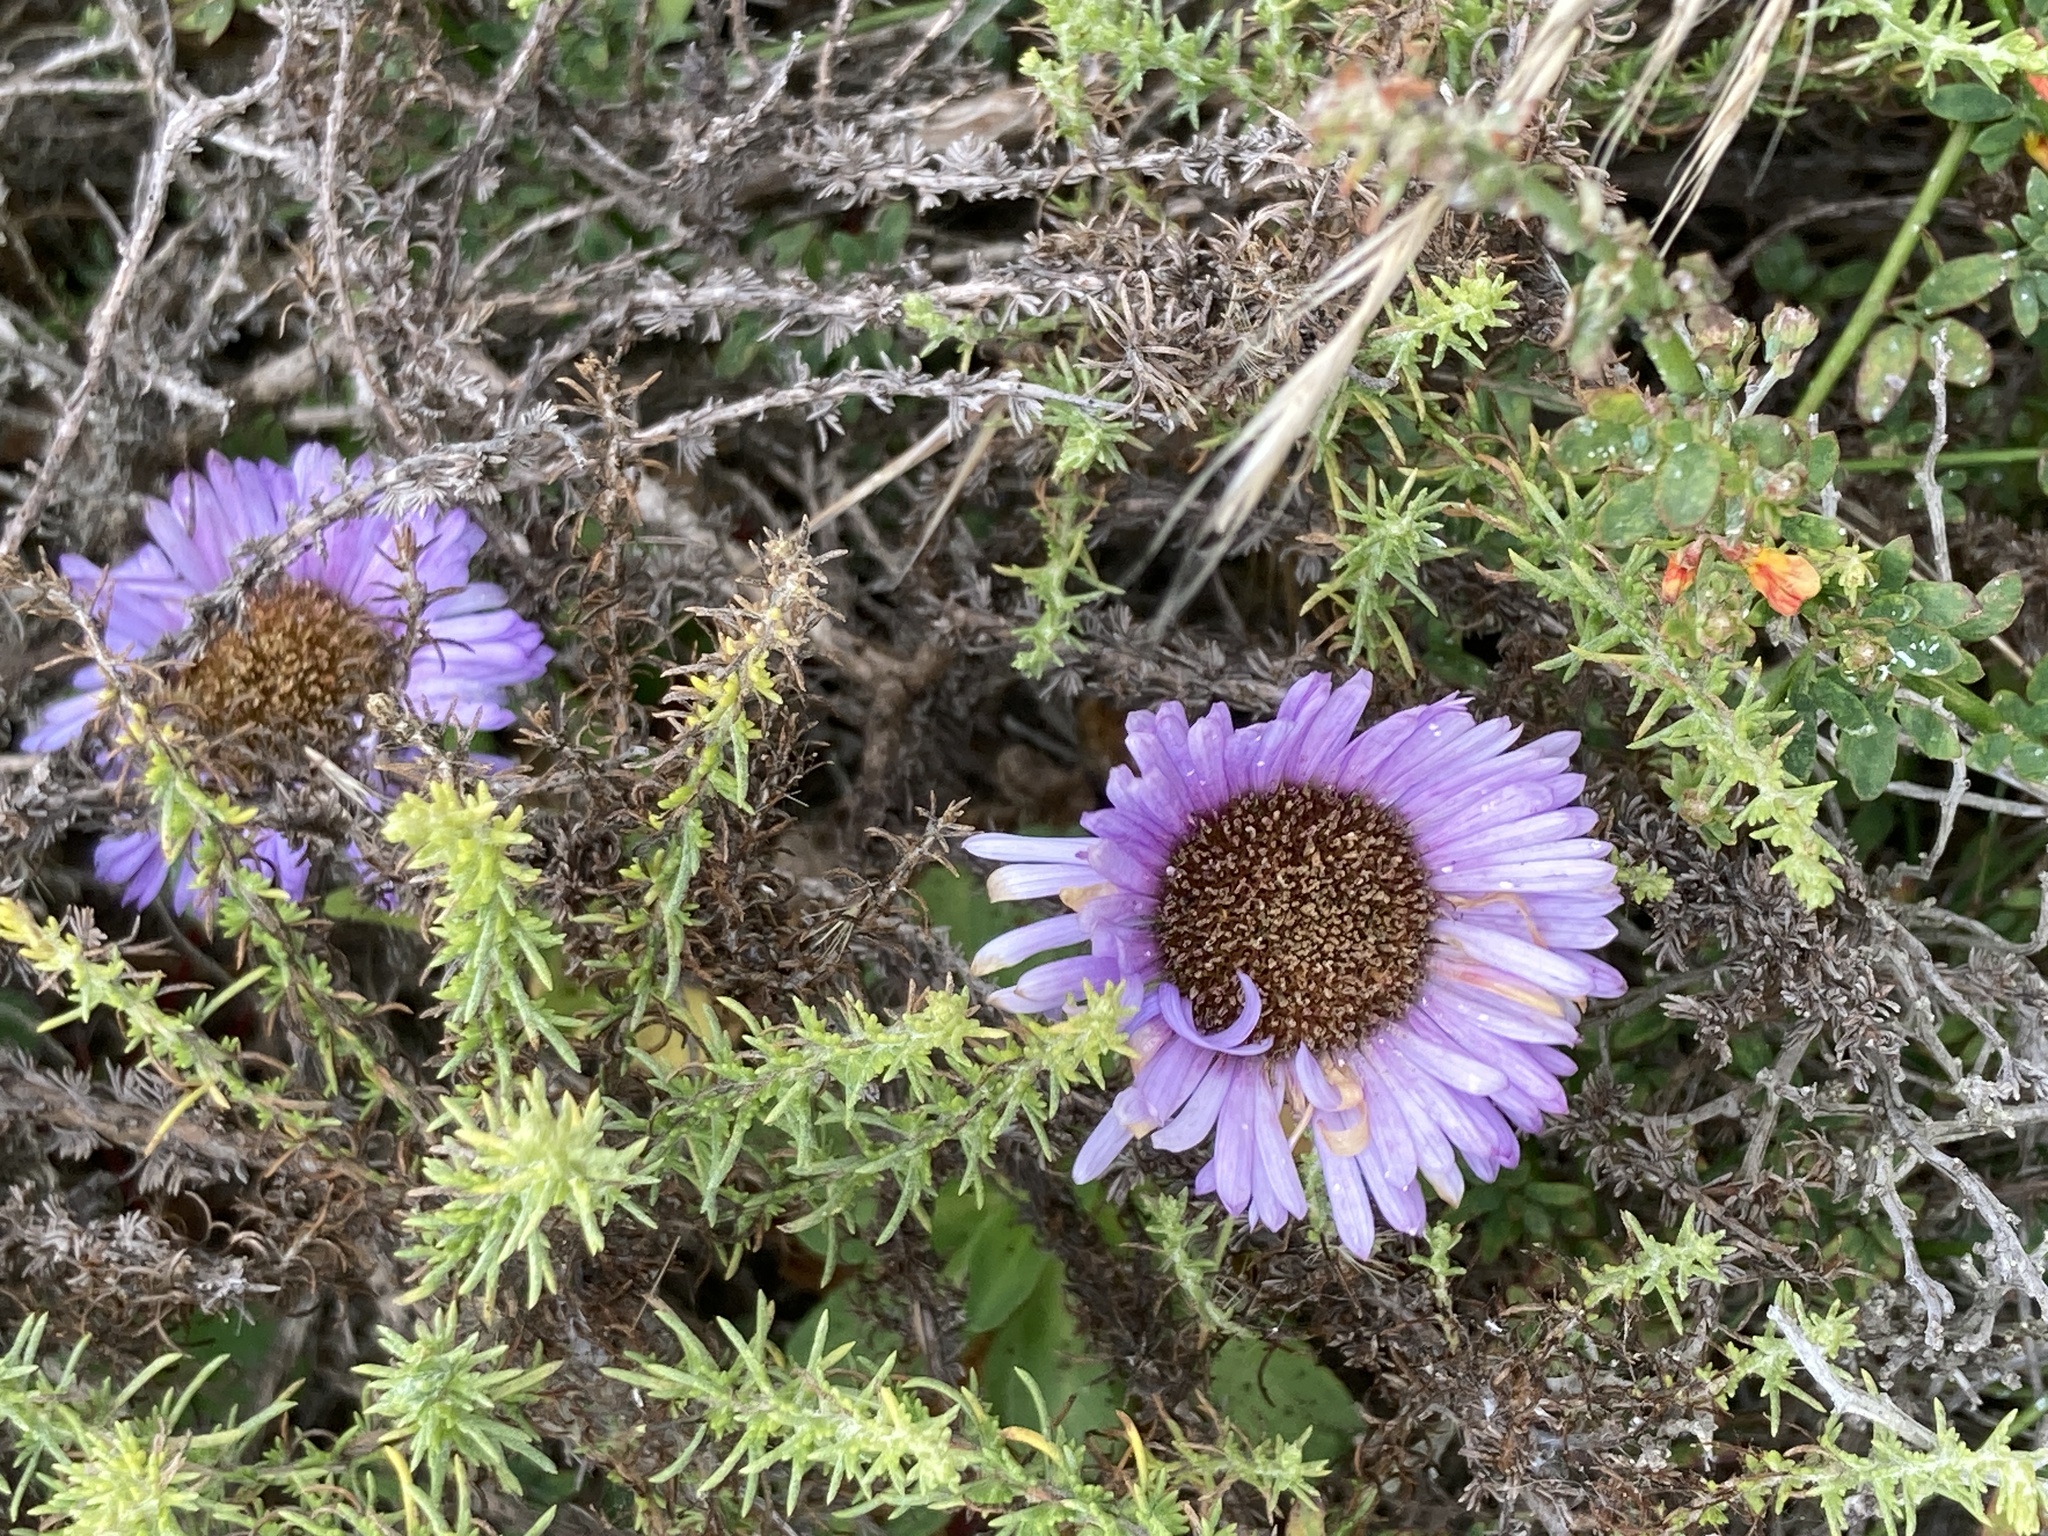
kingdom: Plantae
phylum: Tracheophyta
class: Magnoliopsida
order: Asterales
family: Asteraceae
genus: Erigeron
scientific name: Erigeron glaucus
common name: Seaside daisy
